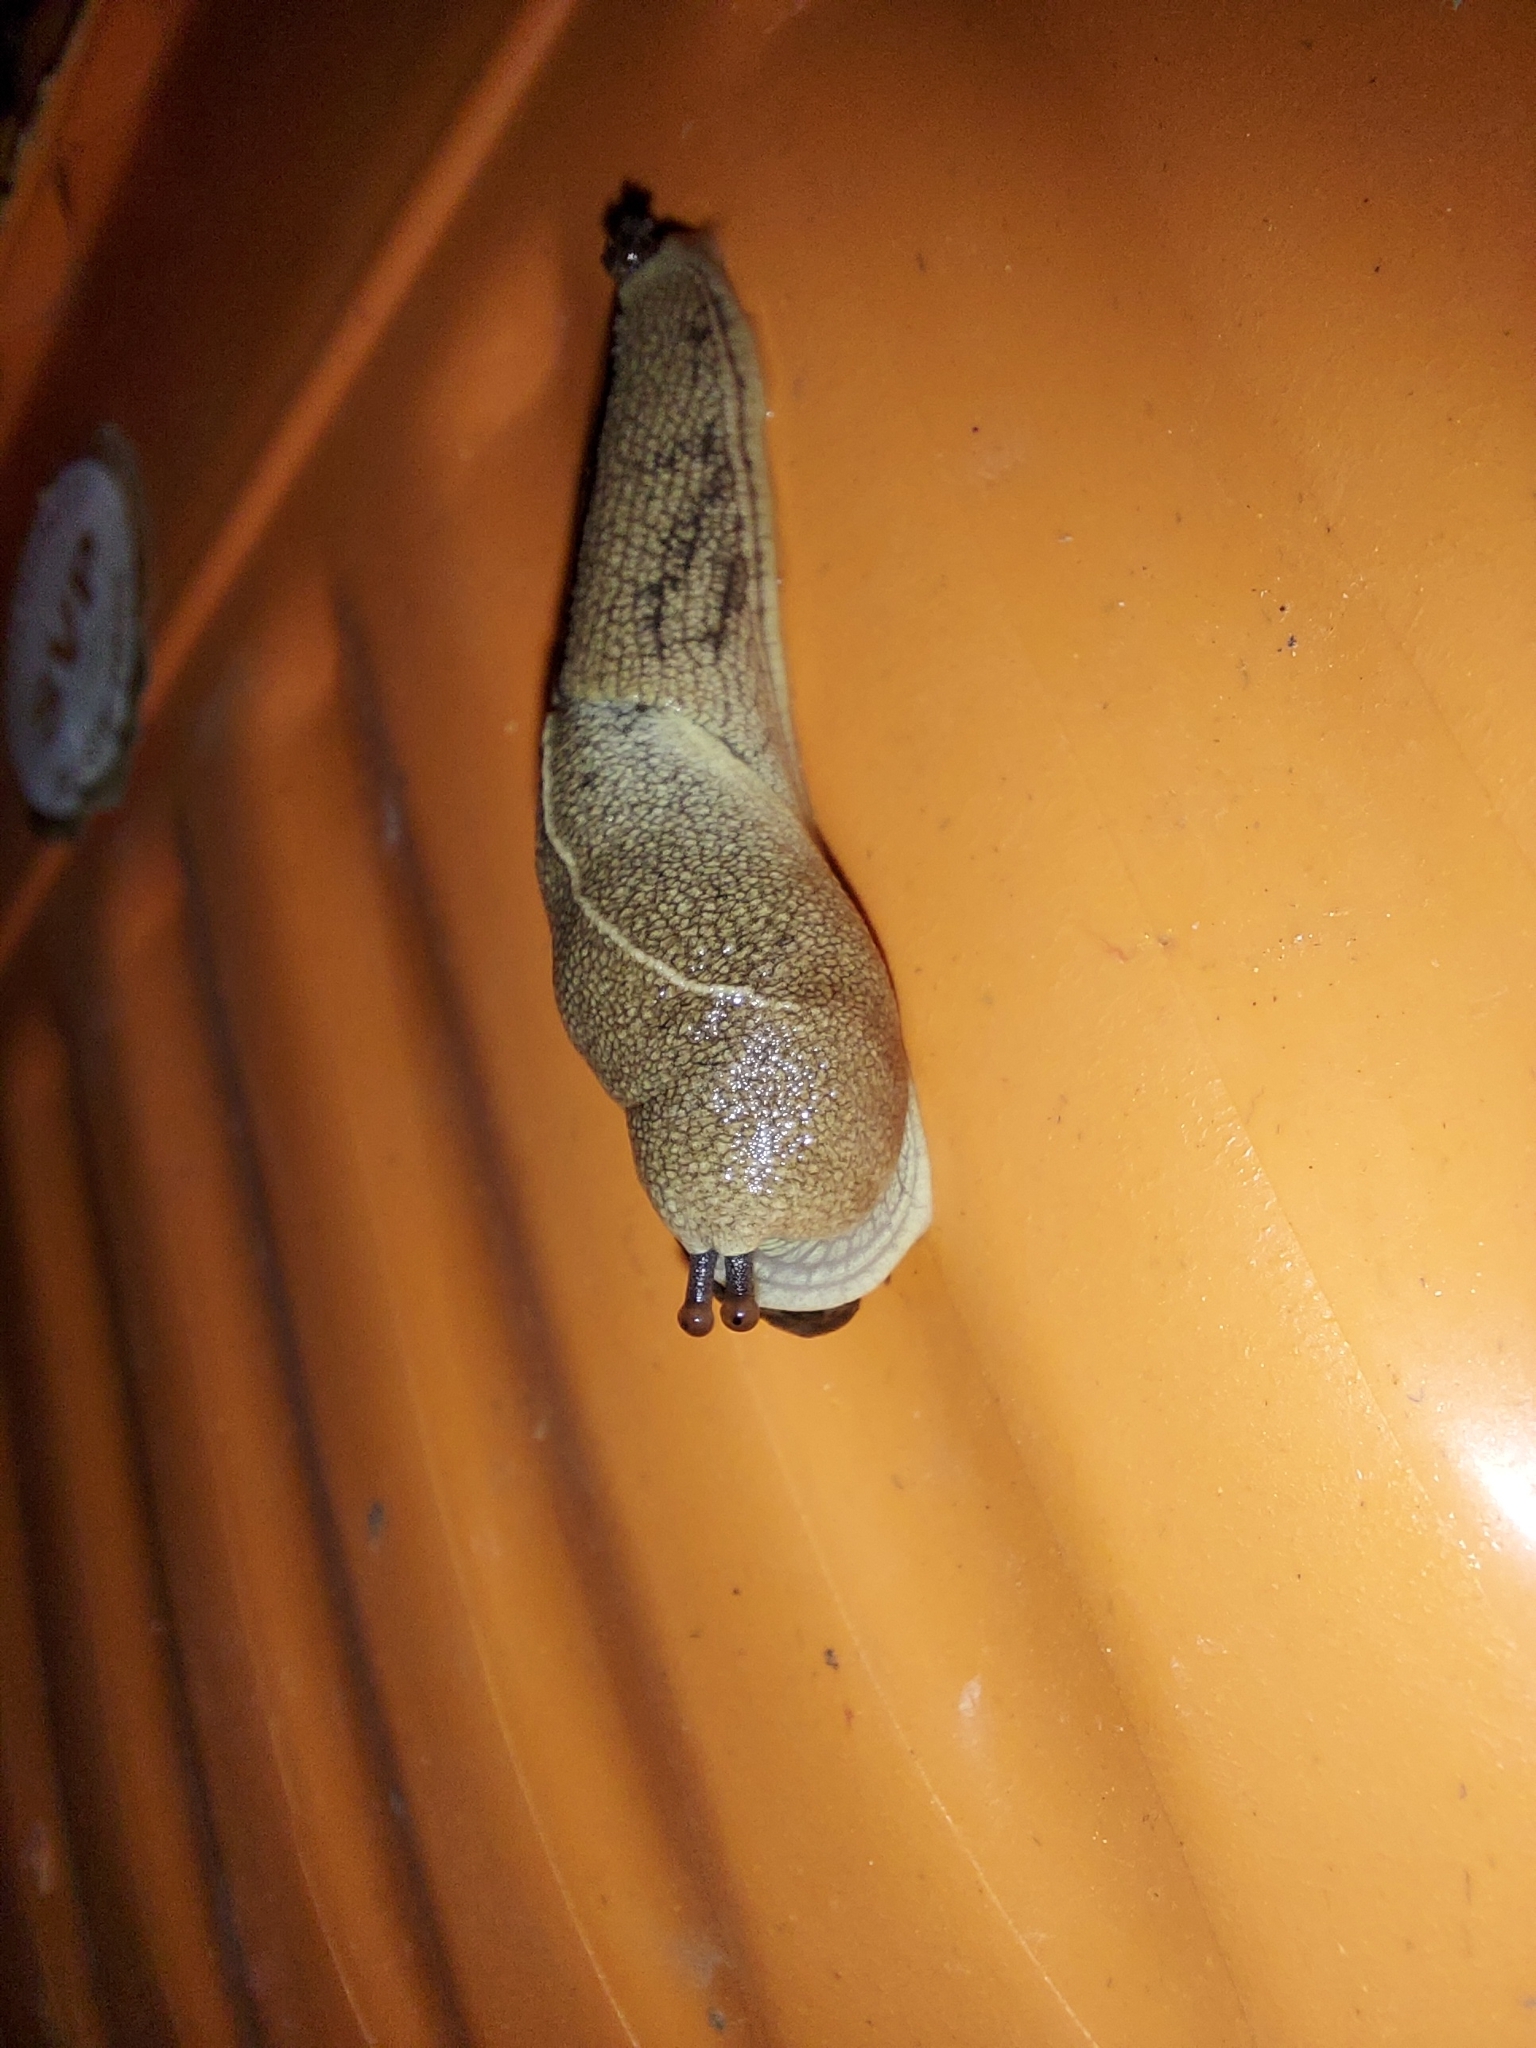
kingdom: Animalia
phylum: Mollusca
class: Gastropoda
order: Stylommatophora
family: Ariophantidae
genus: Mariaella
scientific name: Mariaella dussumieri
